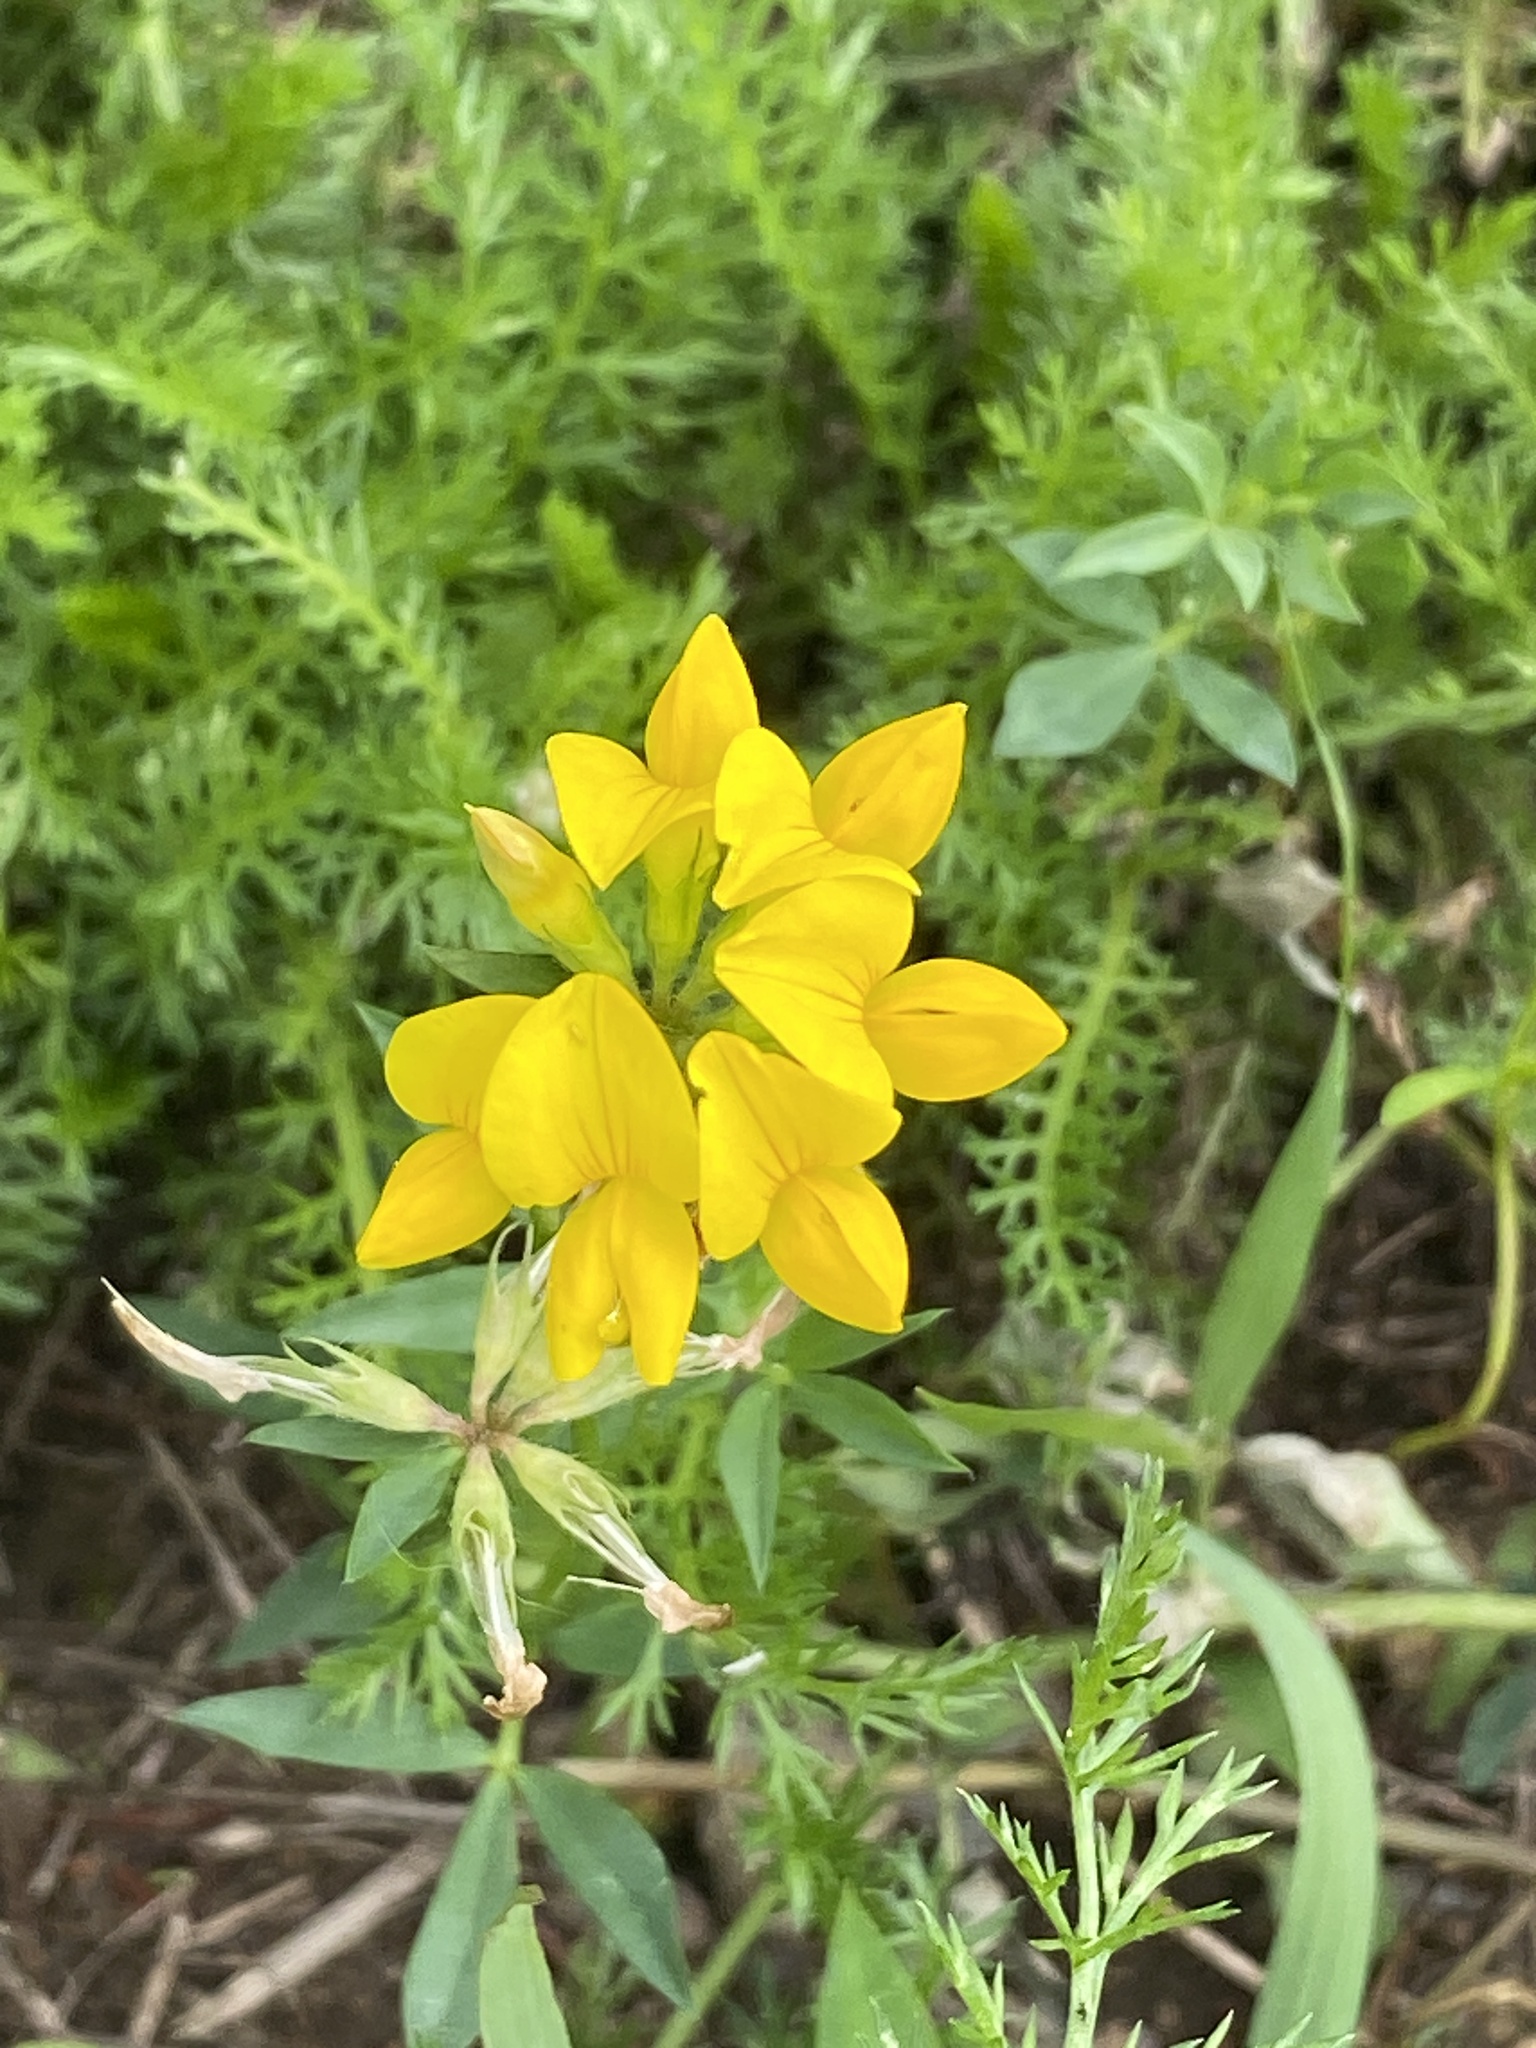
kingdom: Plantae
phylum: Tracheophyta
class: Magnoliopsida
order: Fabales
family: Fabaceae
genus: Lotus
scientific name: Lotus corniculatus
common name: Common bird's-foot-trefoil
